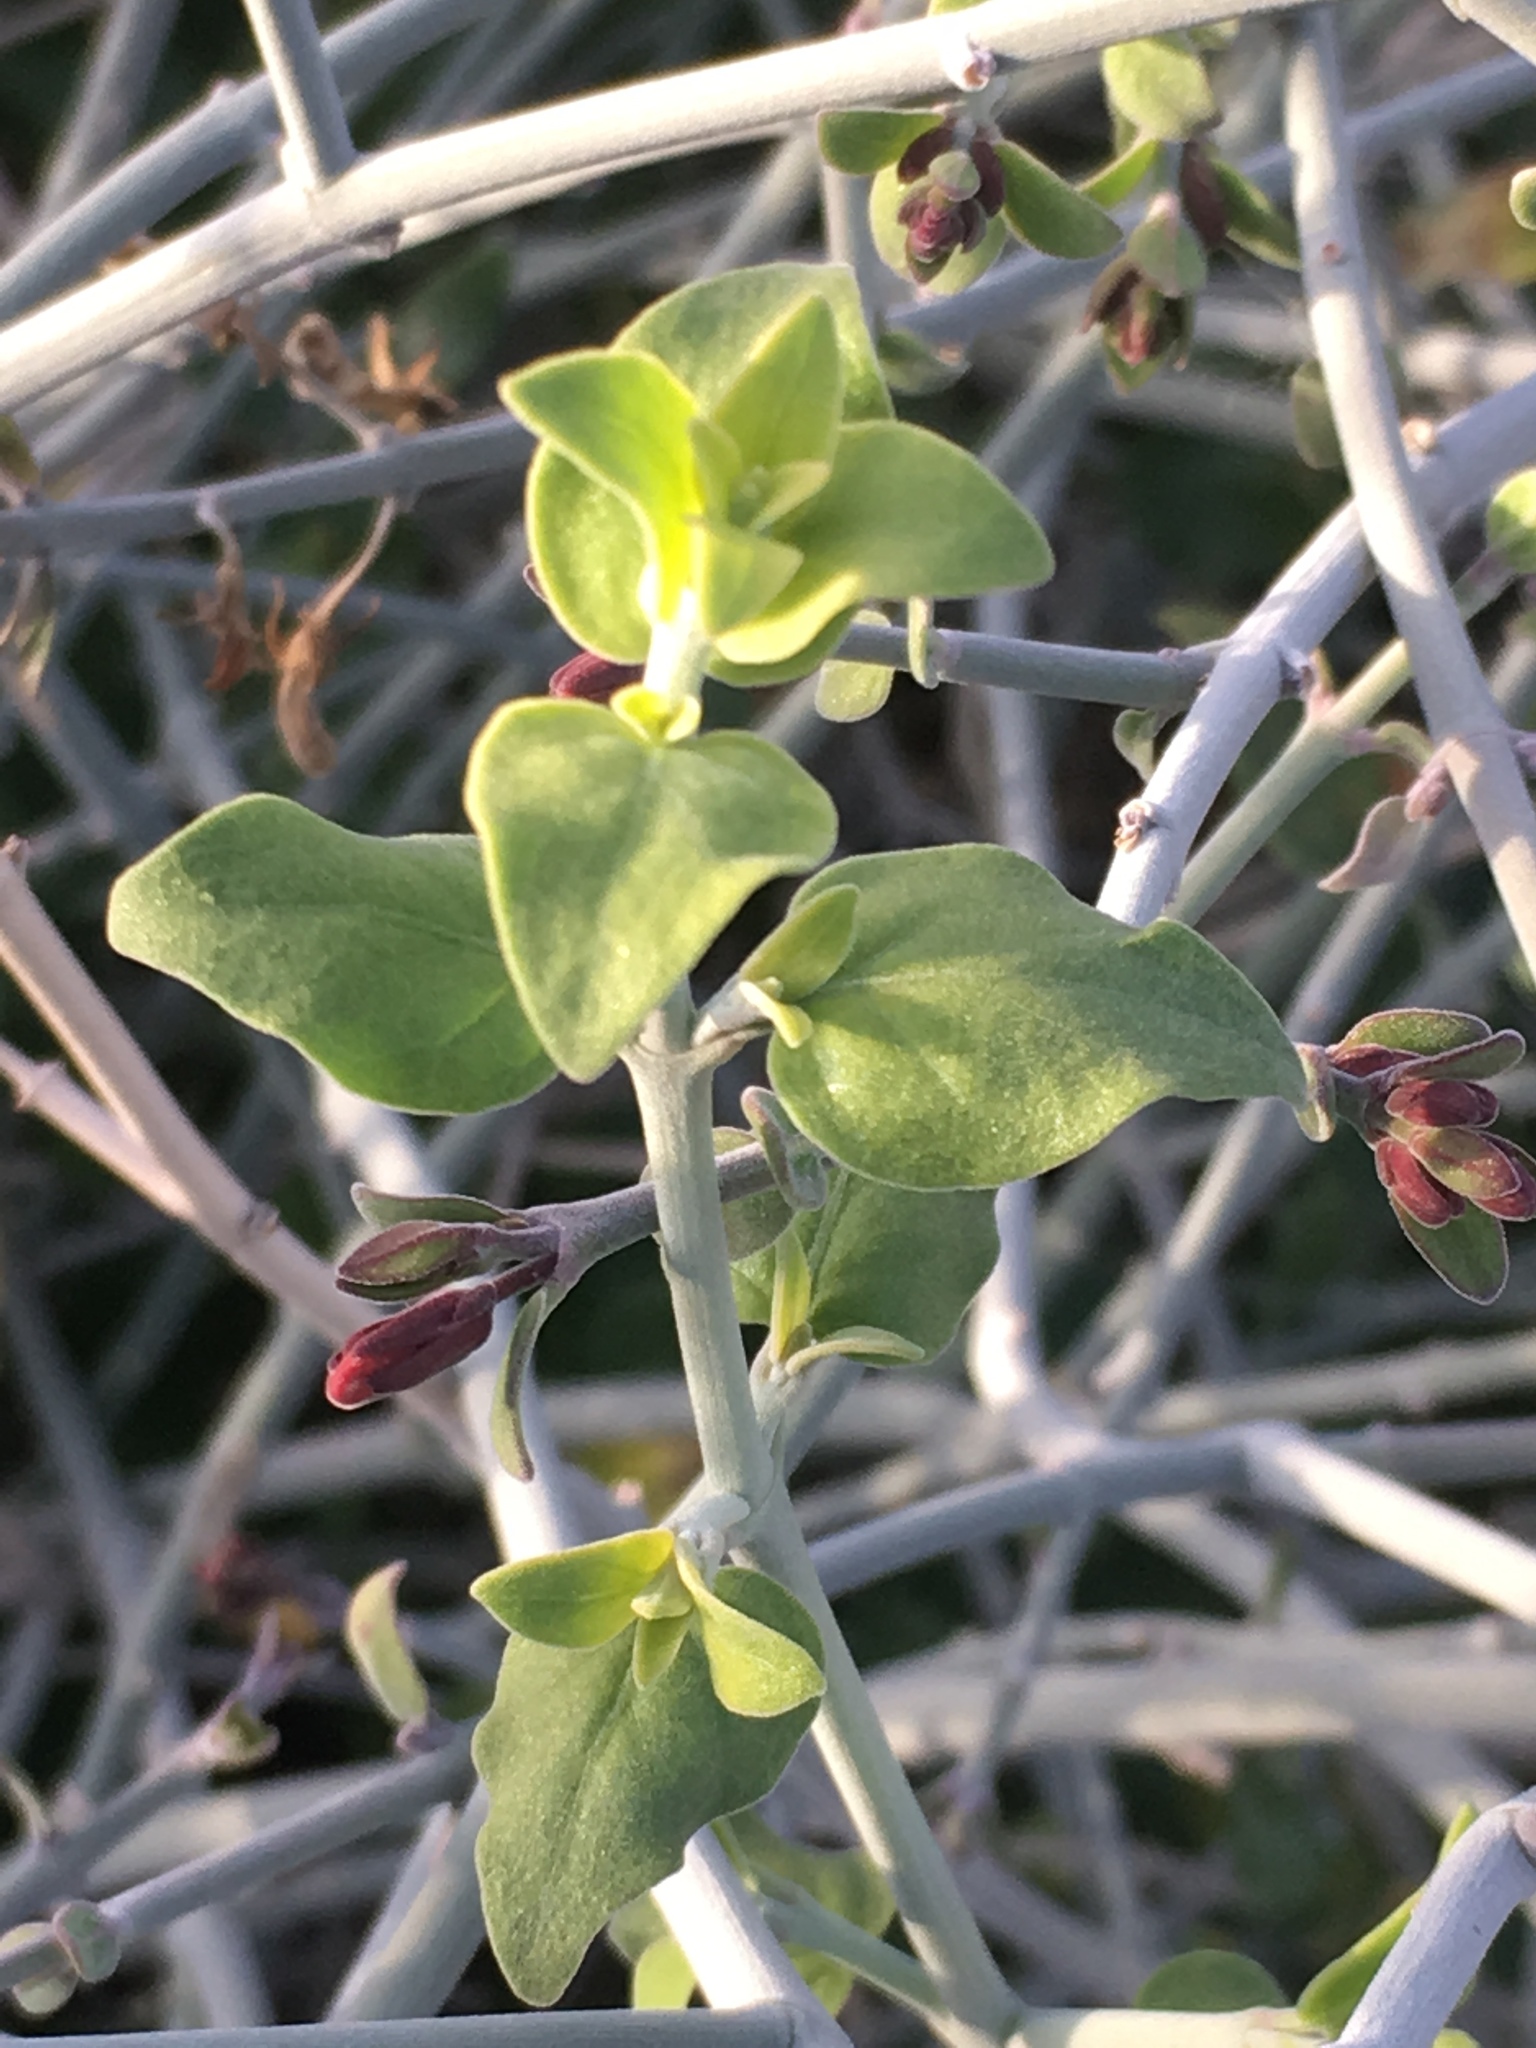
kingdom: Plantae
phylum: Tracheophyta
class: Magnoliopsida
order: Lamiales
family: Acanthaceae
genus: Justicia
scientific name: Justicia californica
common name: Chuparosa-honeysuckle
